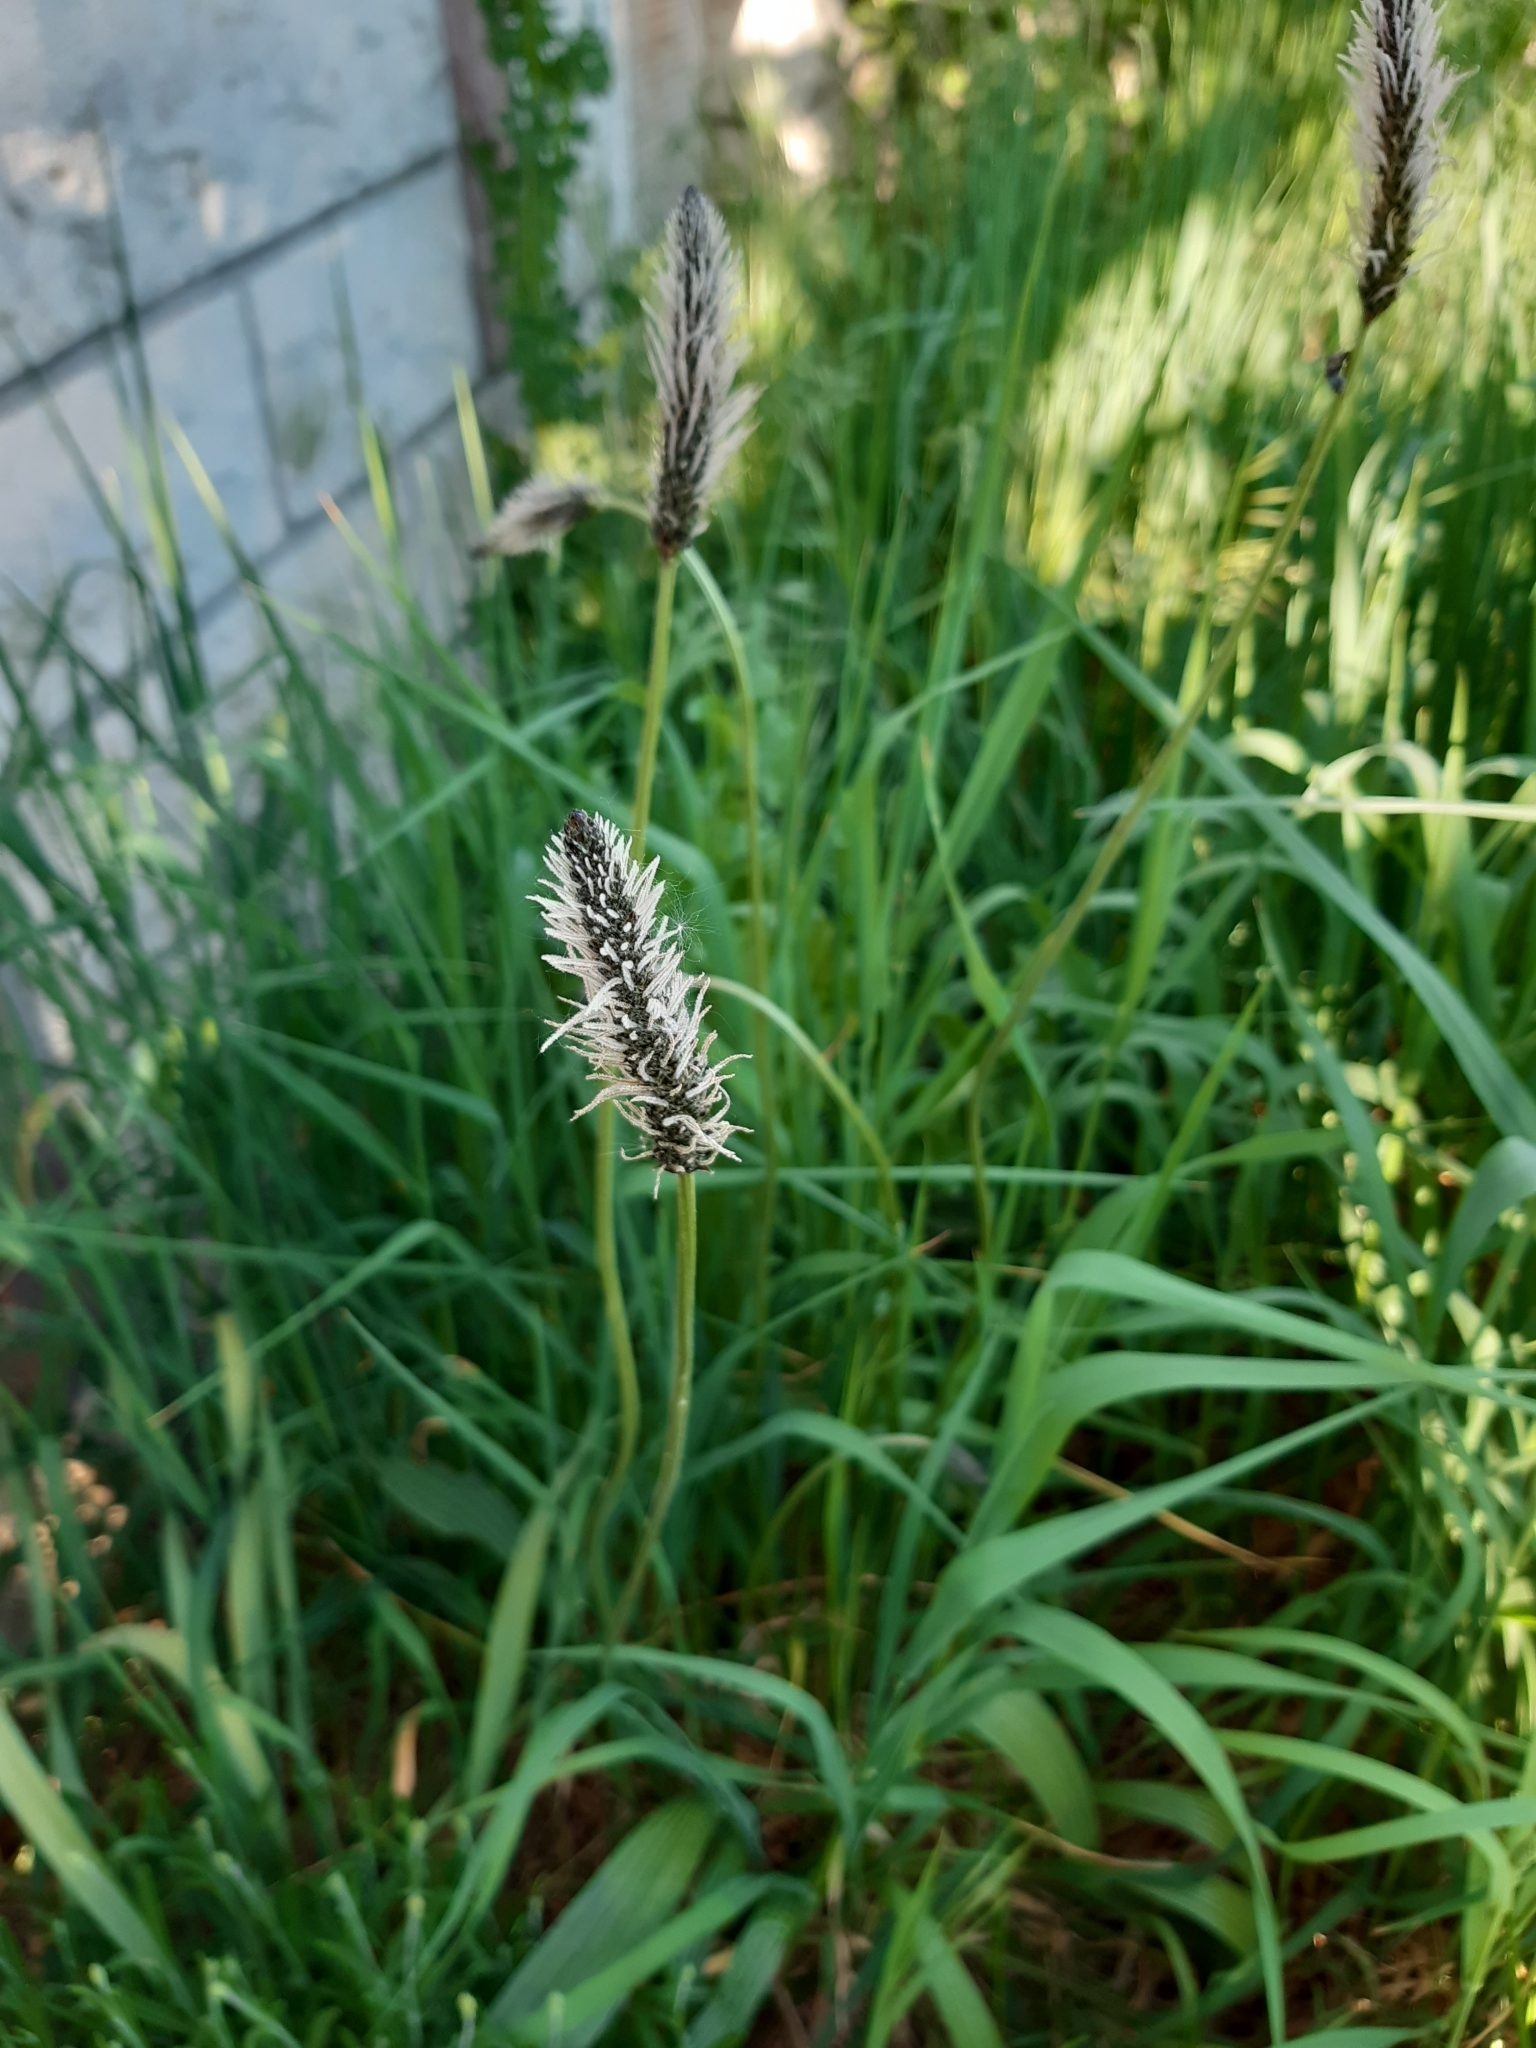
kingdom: Plantae
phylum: Tracheophyta
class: Magnoliopsida
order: Lamiales
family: Plantaginaceae
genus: Plantago
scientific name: Plantago lanceolata
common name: Ribwort plantain
